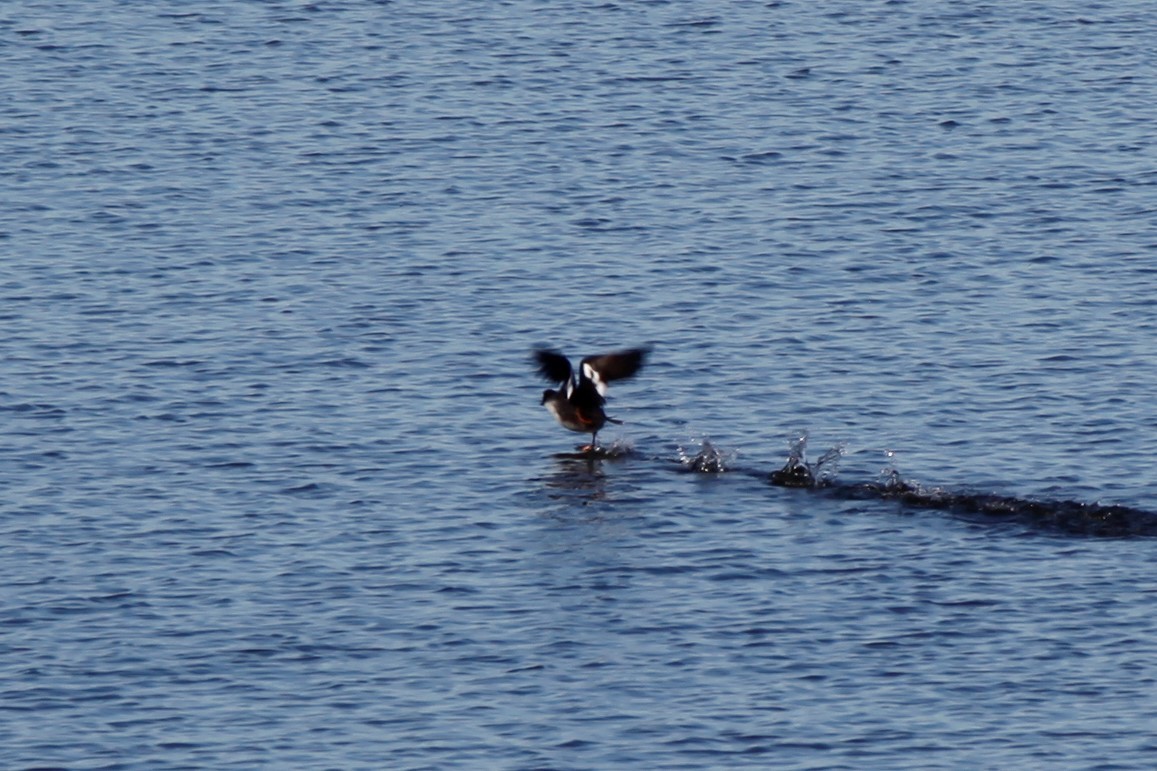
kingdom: Animalia
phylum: Chordata
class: Aves
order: Anseriformes
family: Anatidae
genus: Bucephala
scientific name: Bucephala clangula
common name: Common goldeneye
